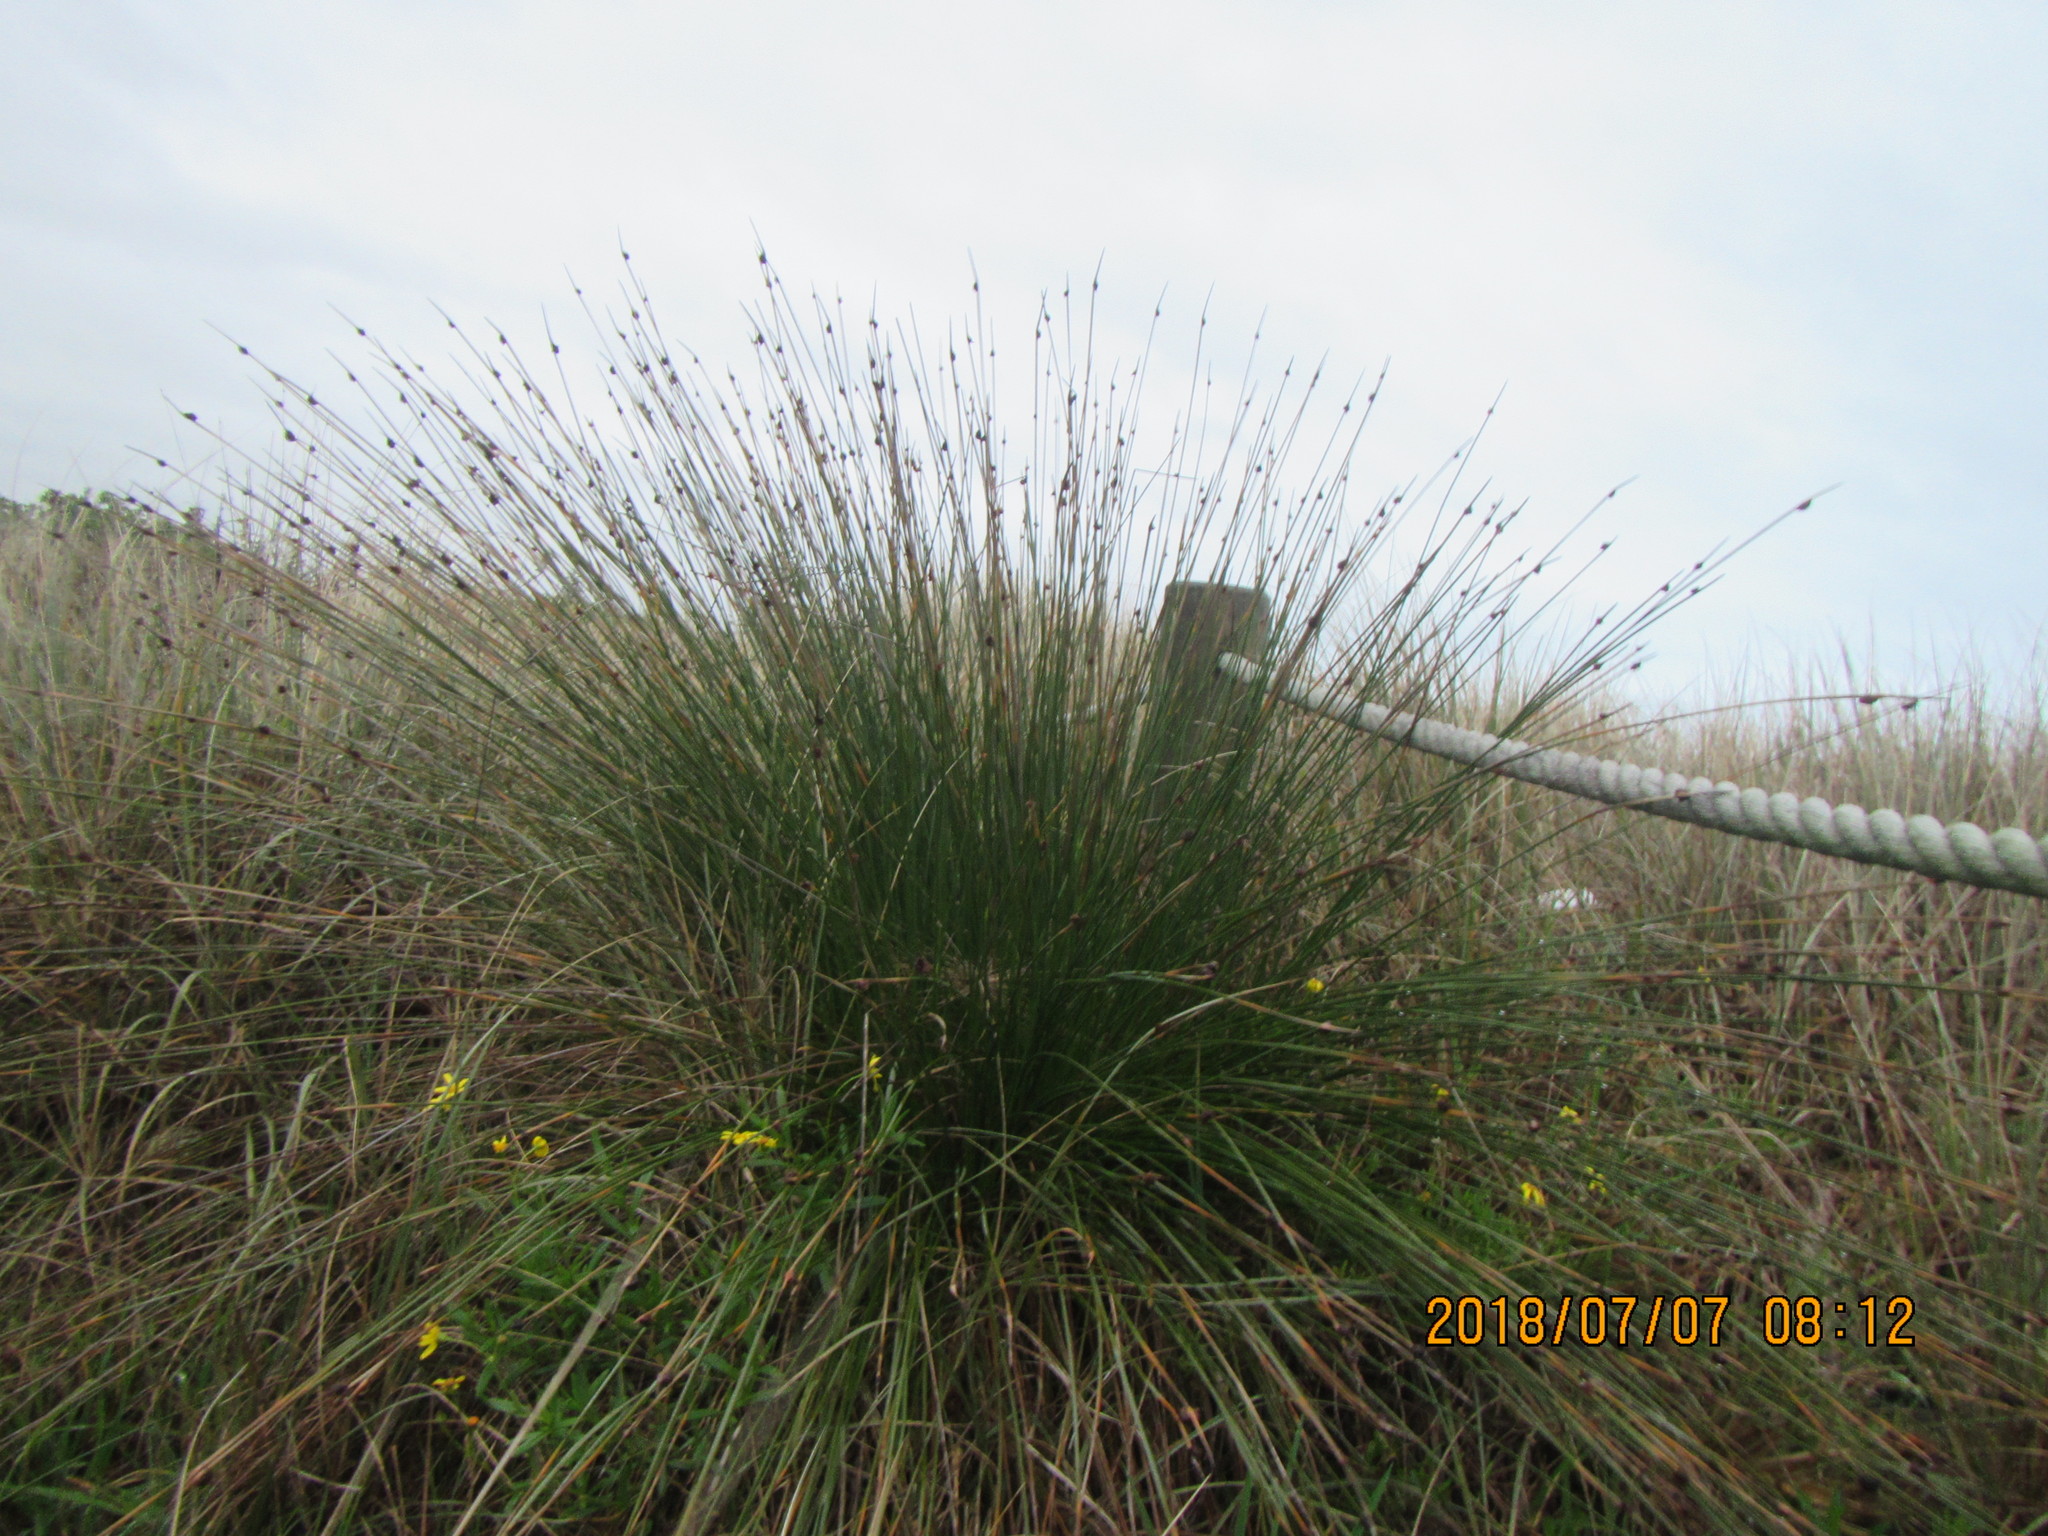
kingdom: Plantae
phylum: Tracheophyta
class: Liliopsida
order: Poales
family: Cyperaceae
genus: Ficinia
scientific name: Ficinia nodosa
